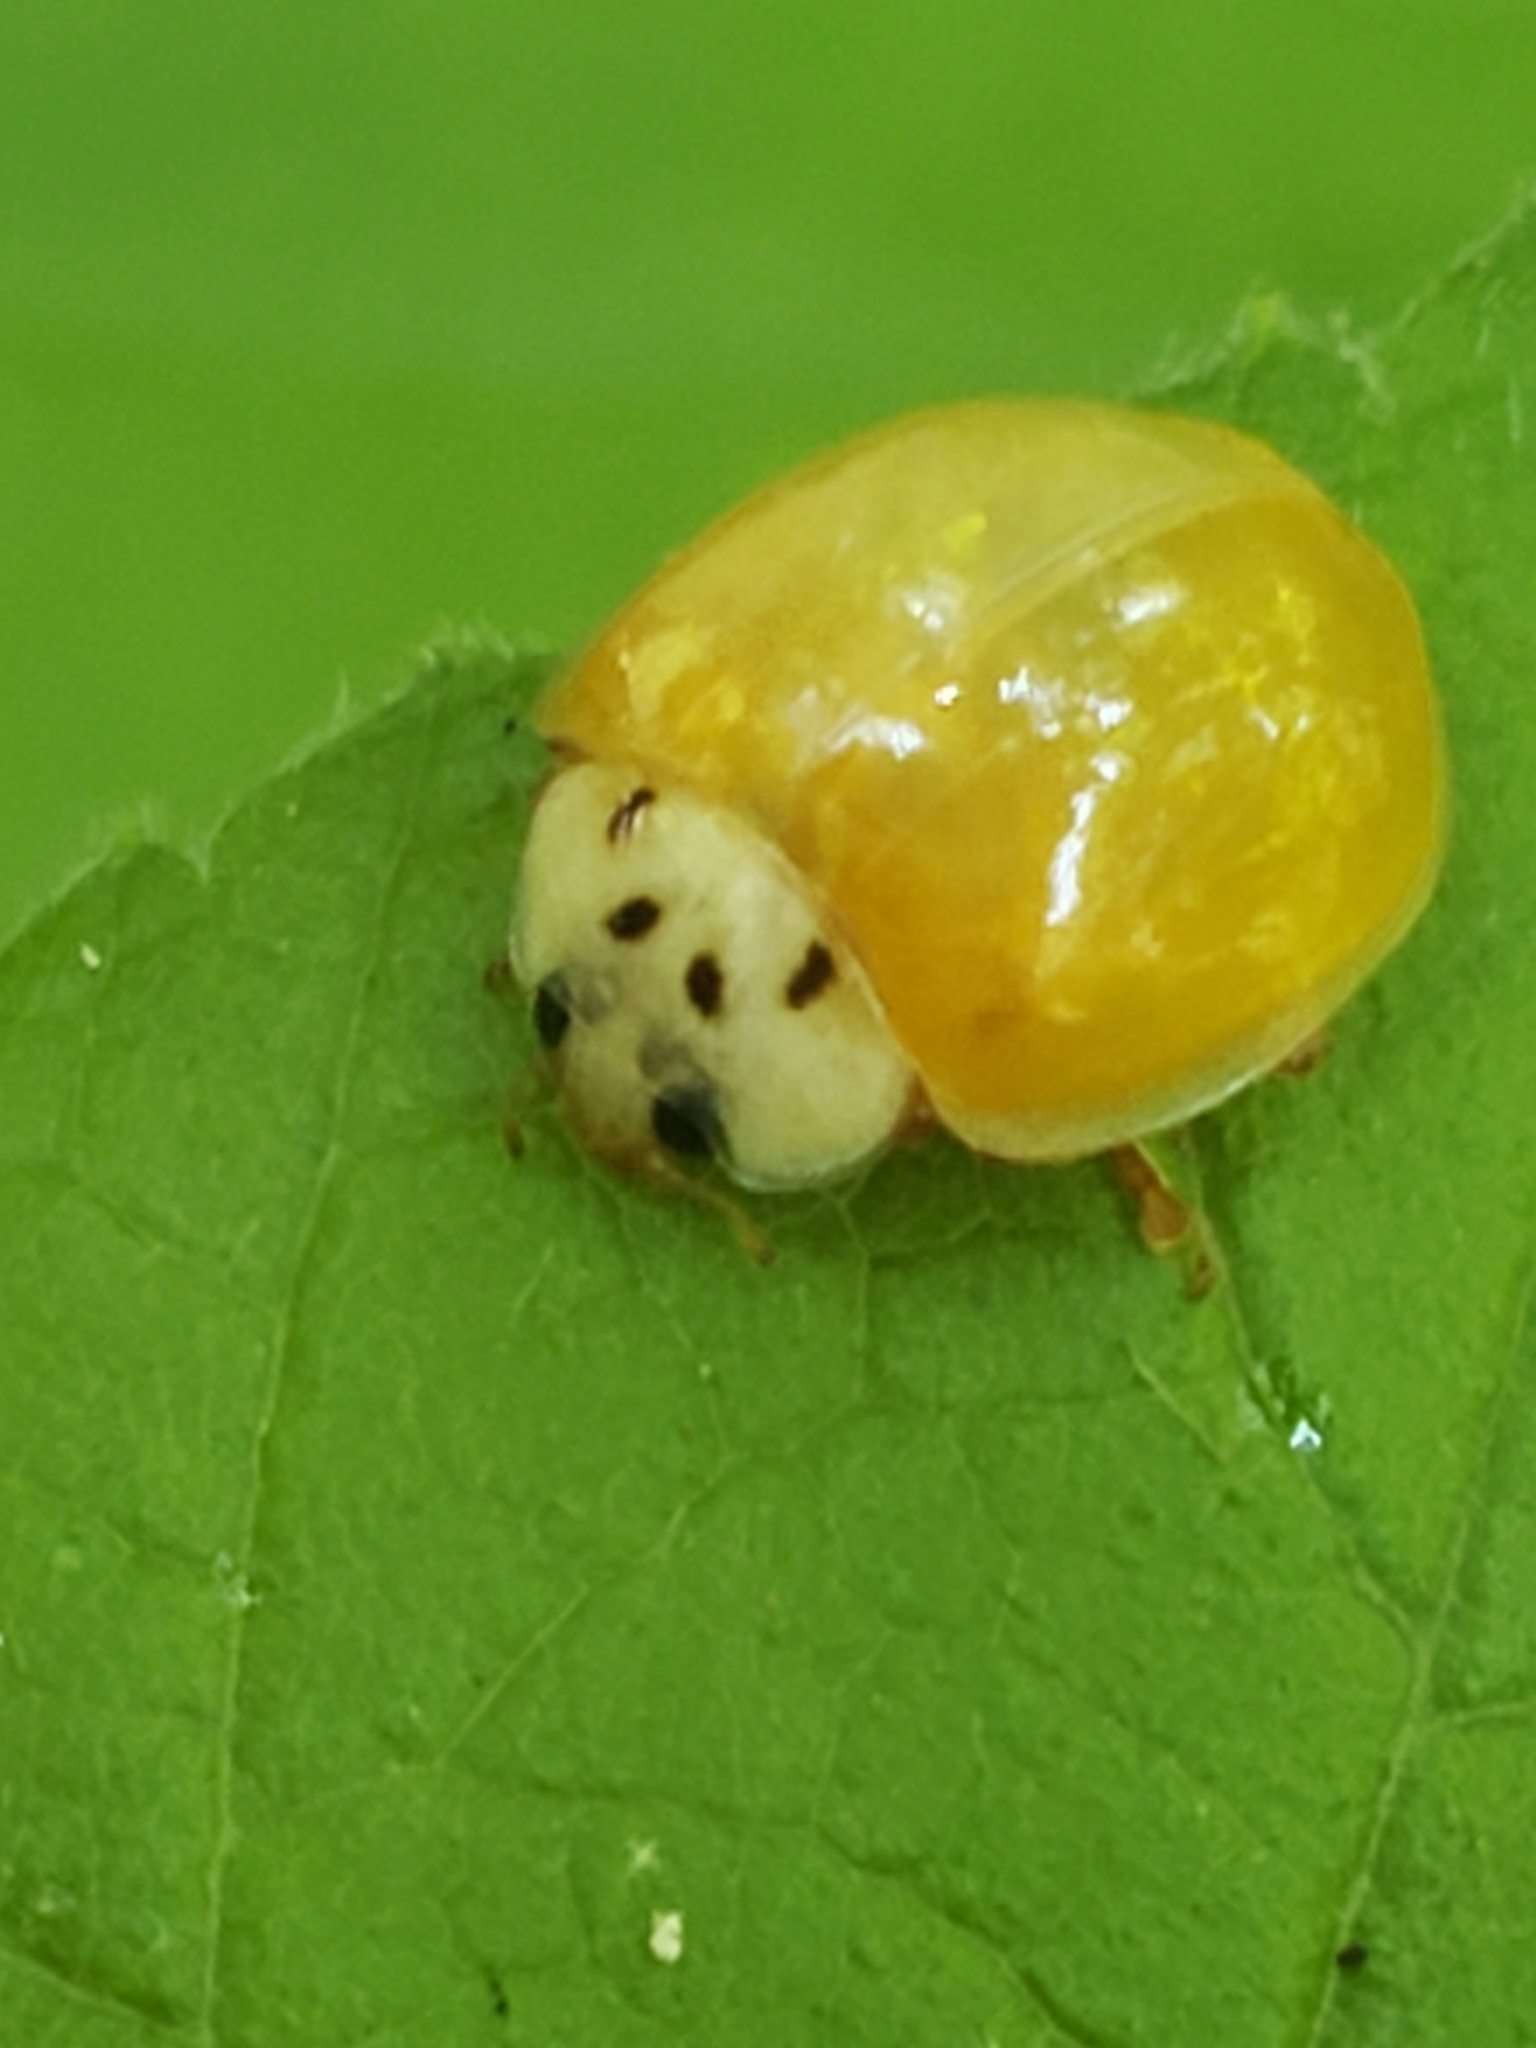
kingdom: Animalia
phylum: Arthropoda
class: Insecta
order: Coleoptera
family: Coccinellidae
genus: Harmonia
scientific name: Harmonia axyridis
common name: Harlequin ladybird
